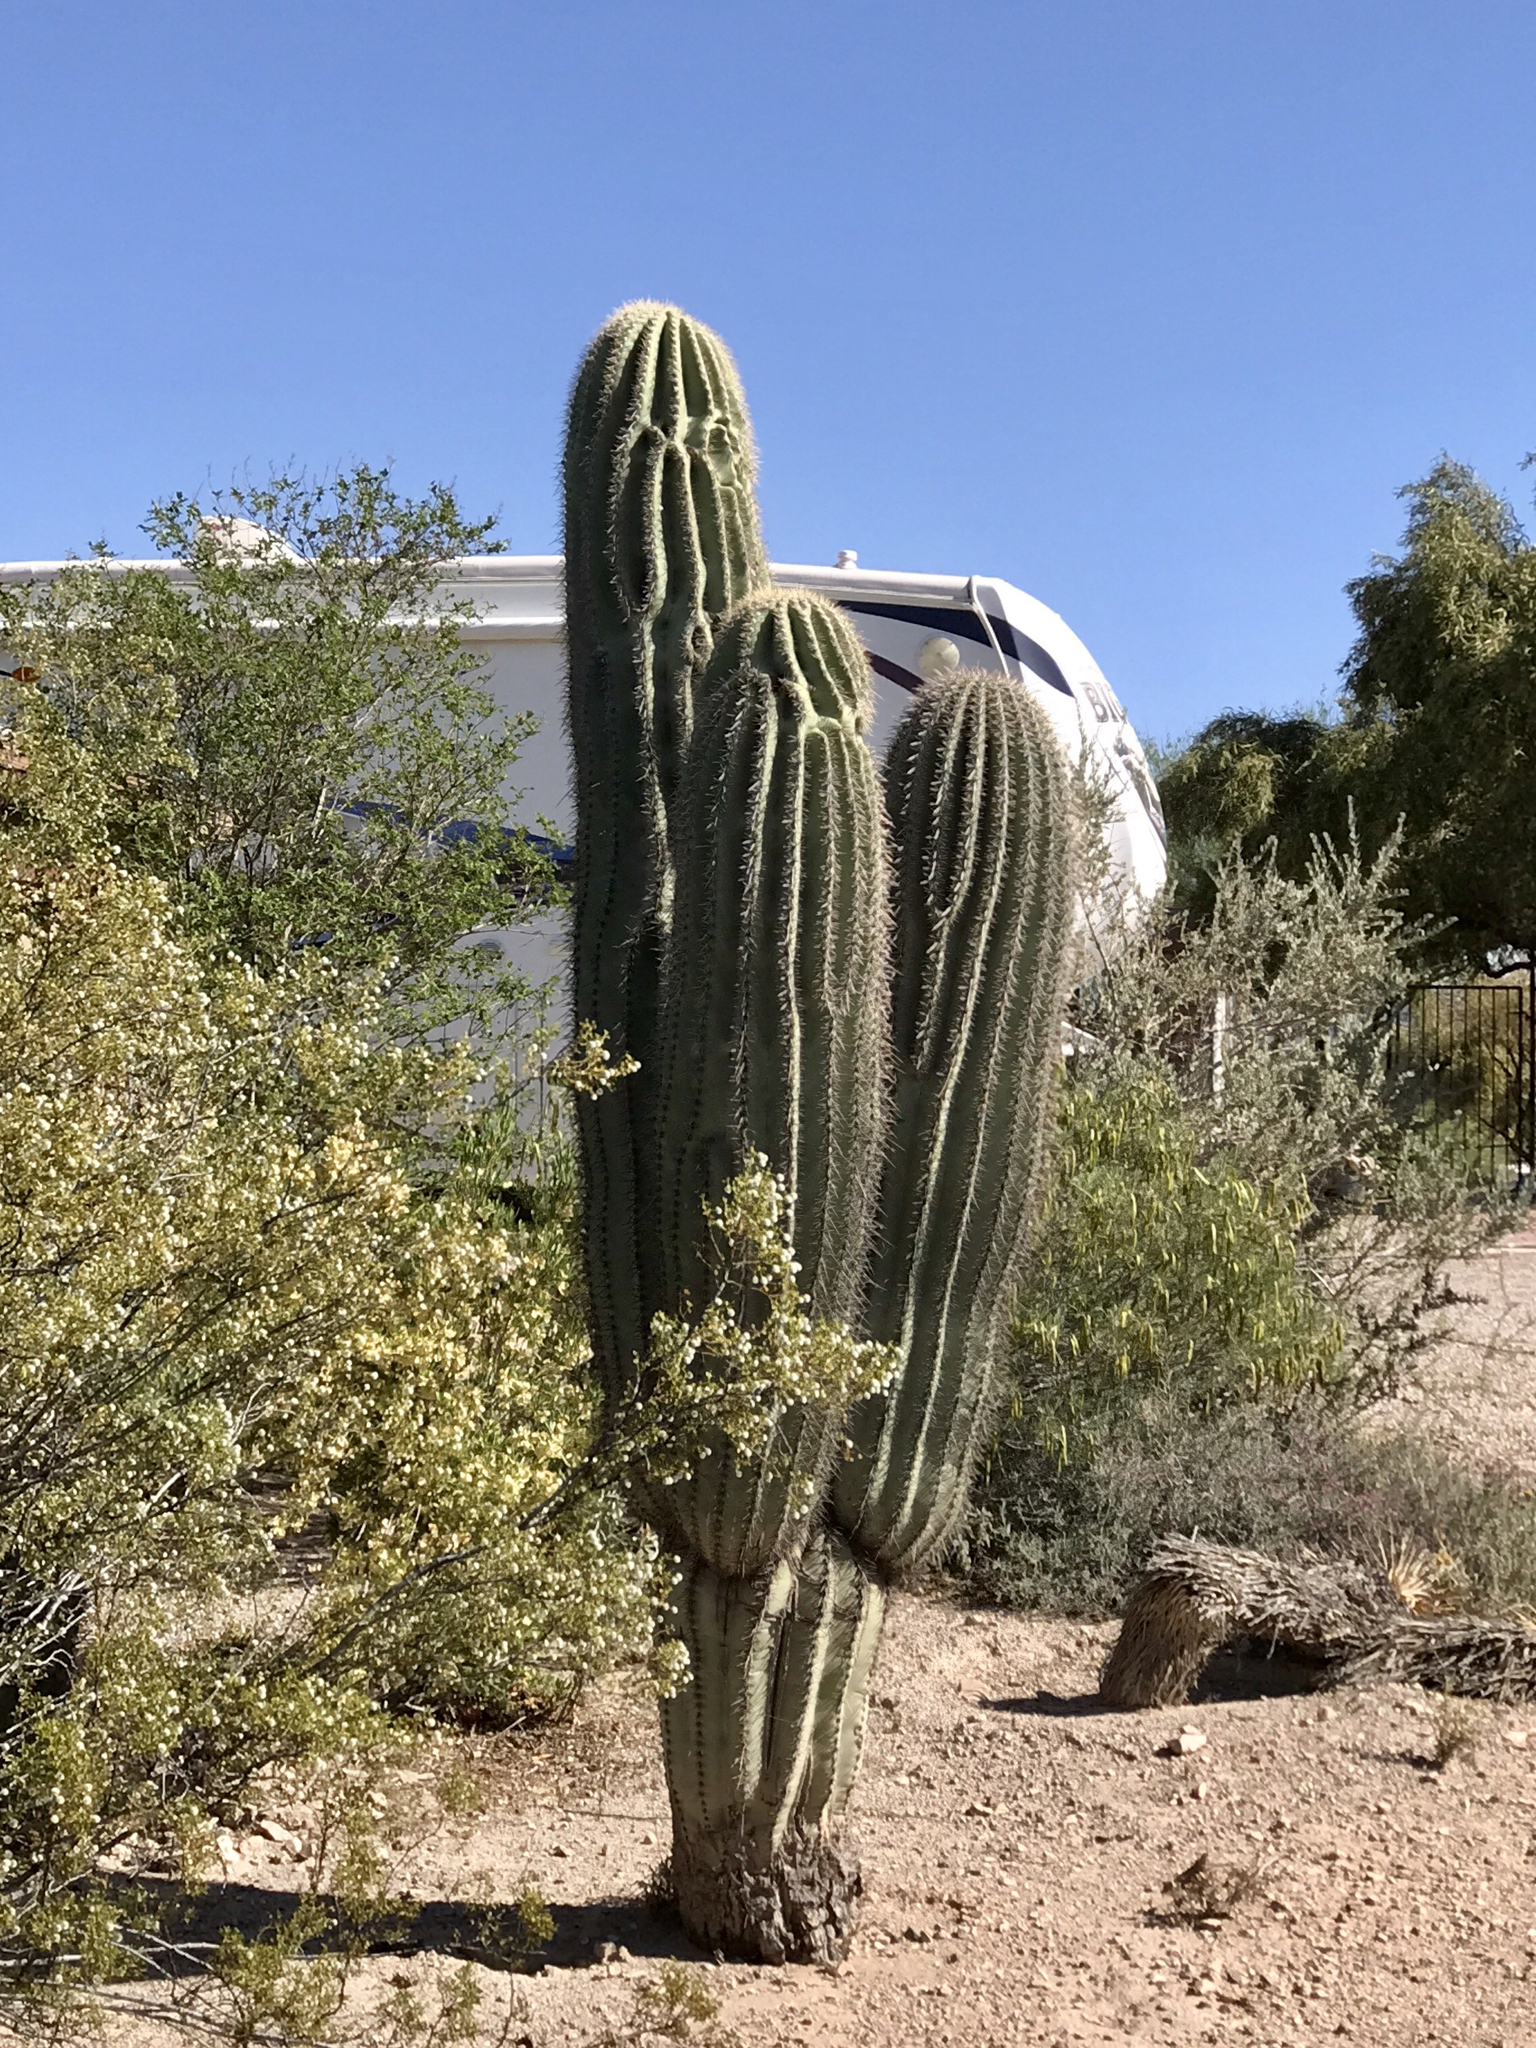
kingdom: Plantae
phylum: Tracheophyta
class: Magnoliopsida
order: Caryophyllales
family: Cactaceae
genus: Carnegiea
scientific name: Carnegiea gigantea
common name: Saguaro
